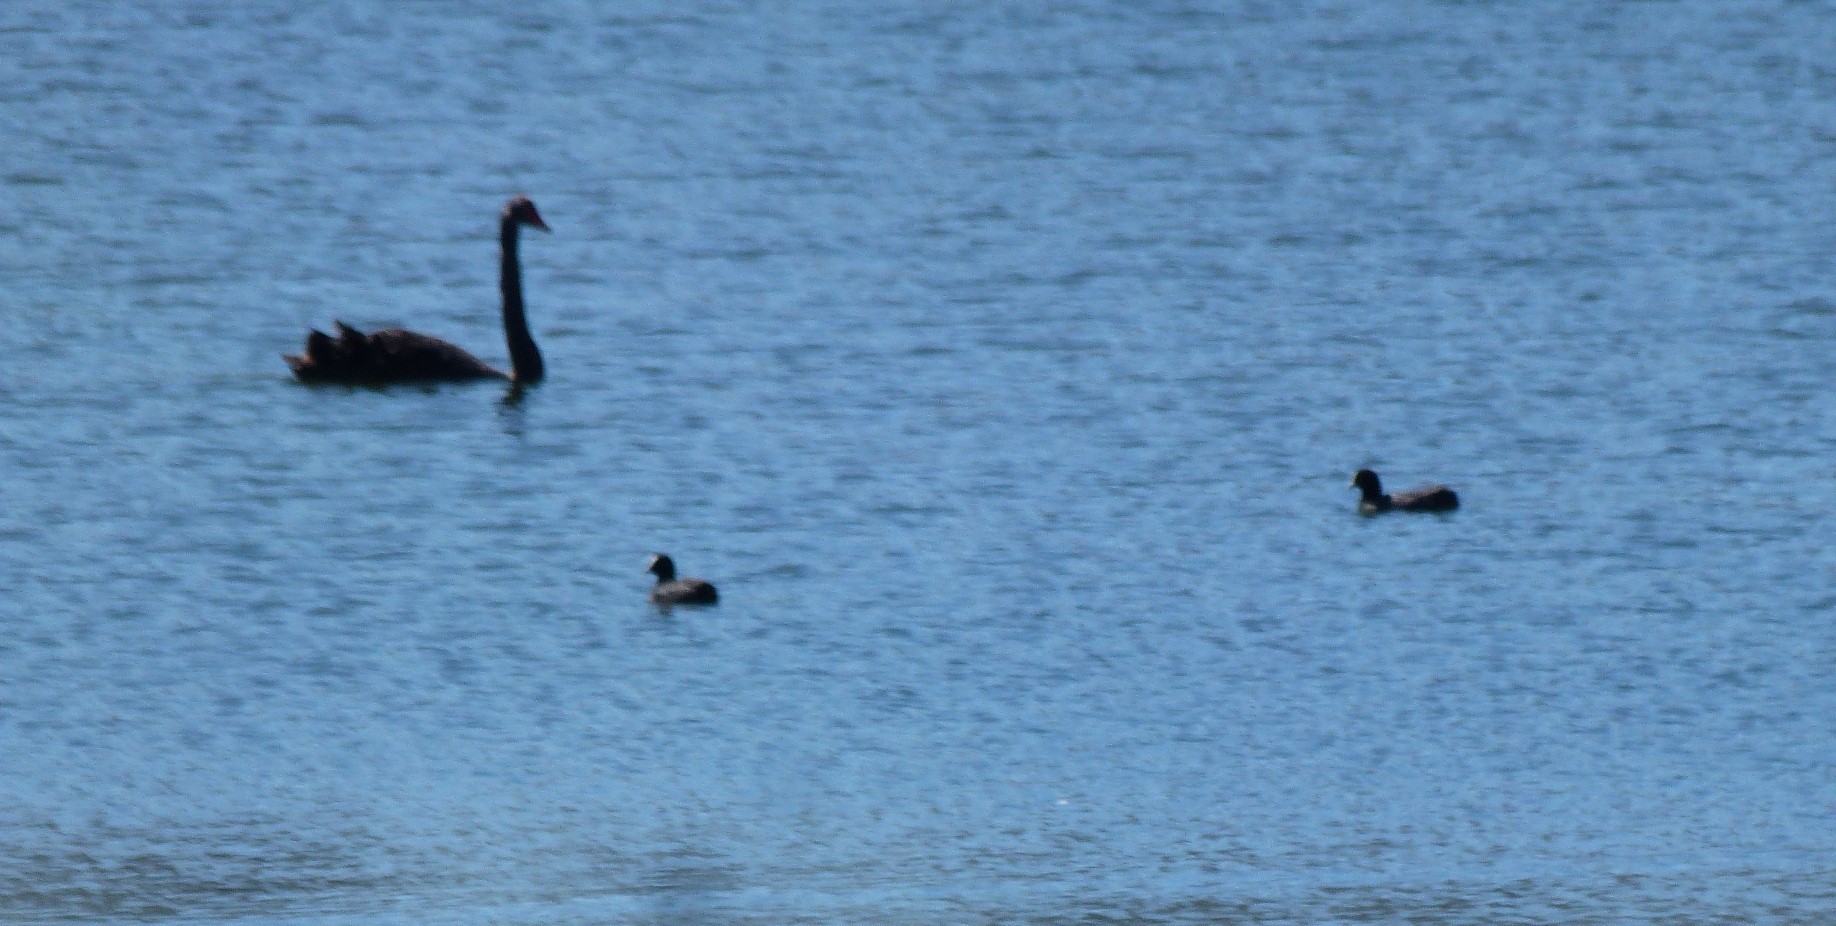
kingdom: Animalia
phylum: Chordata
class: Aves
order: Anseriformes
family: Anatidae
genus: Cygnus
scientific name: Cygnus atratus
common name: Black swan
